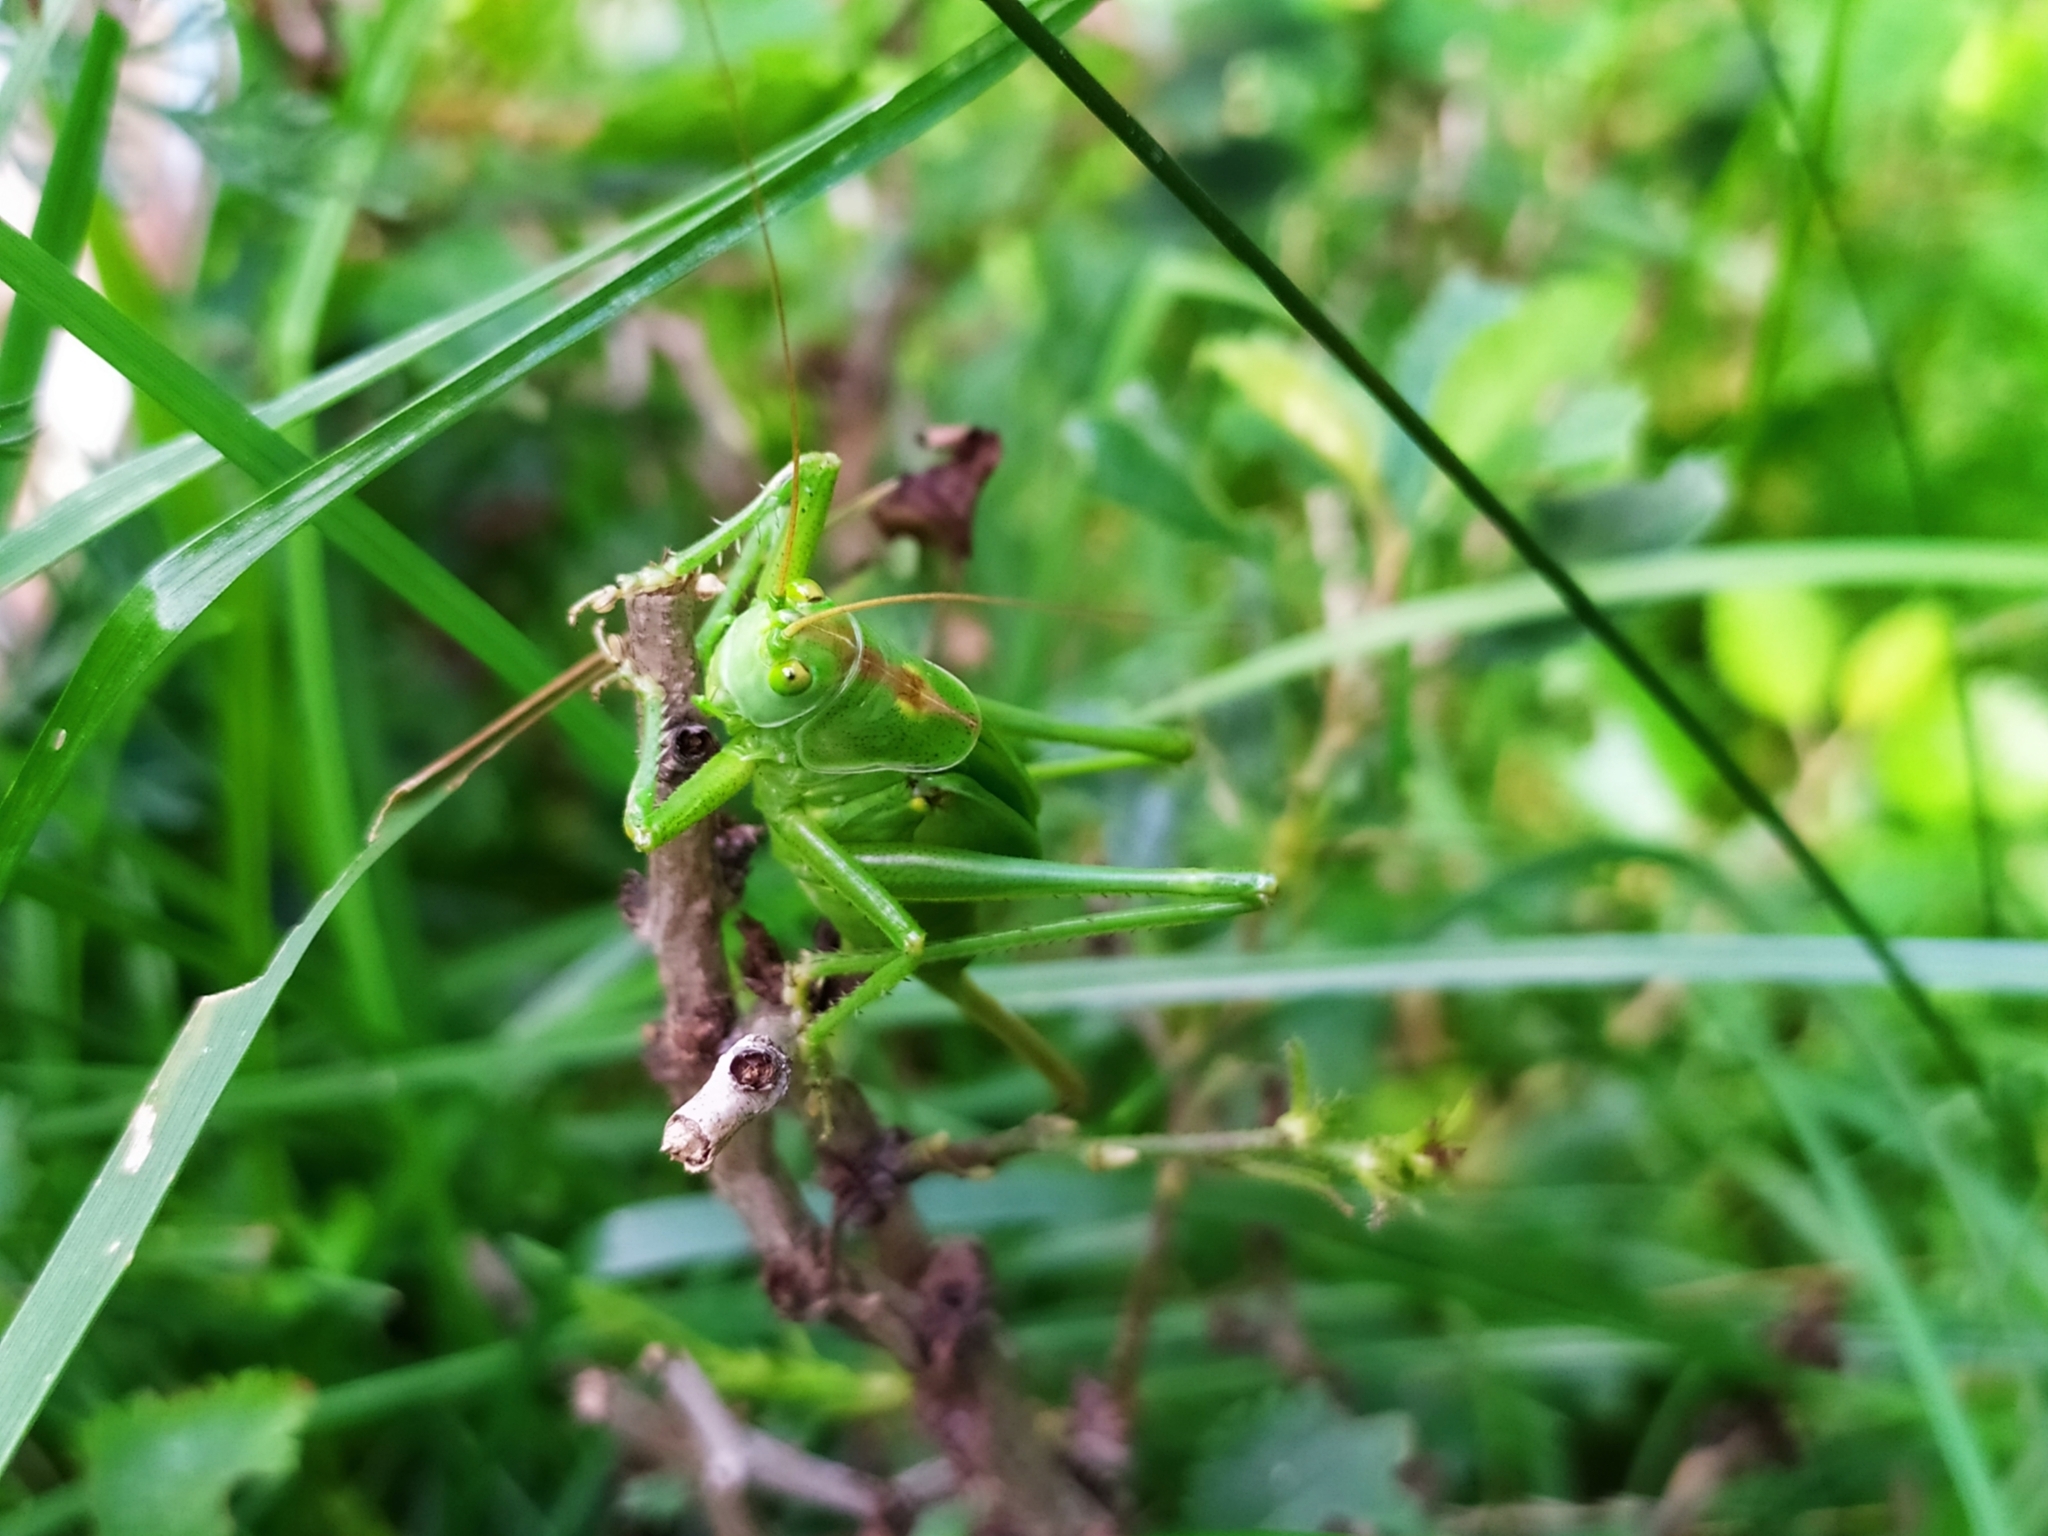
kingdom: Animalia
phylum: Arthropoda
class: Insecta
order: Orthoptera
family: Tettigoniidae
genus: Tettigonia
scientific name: Tettigonia viridissima
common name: Great green bush-cricket
